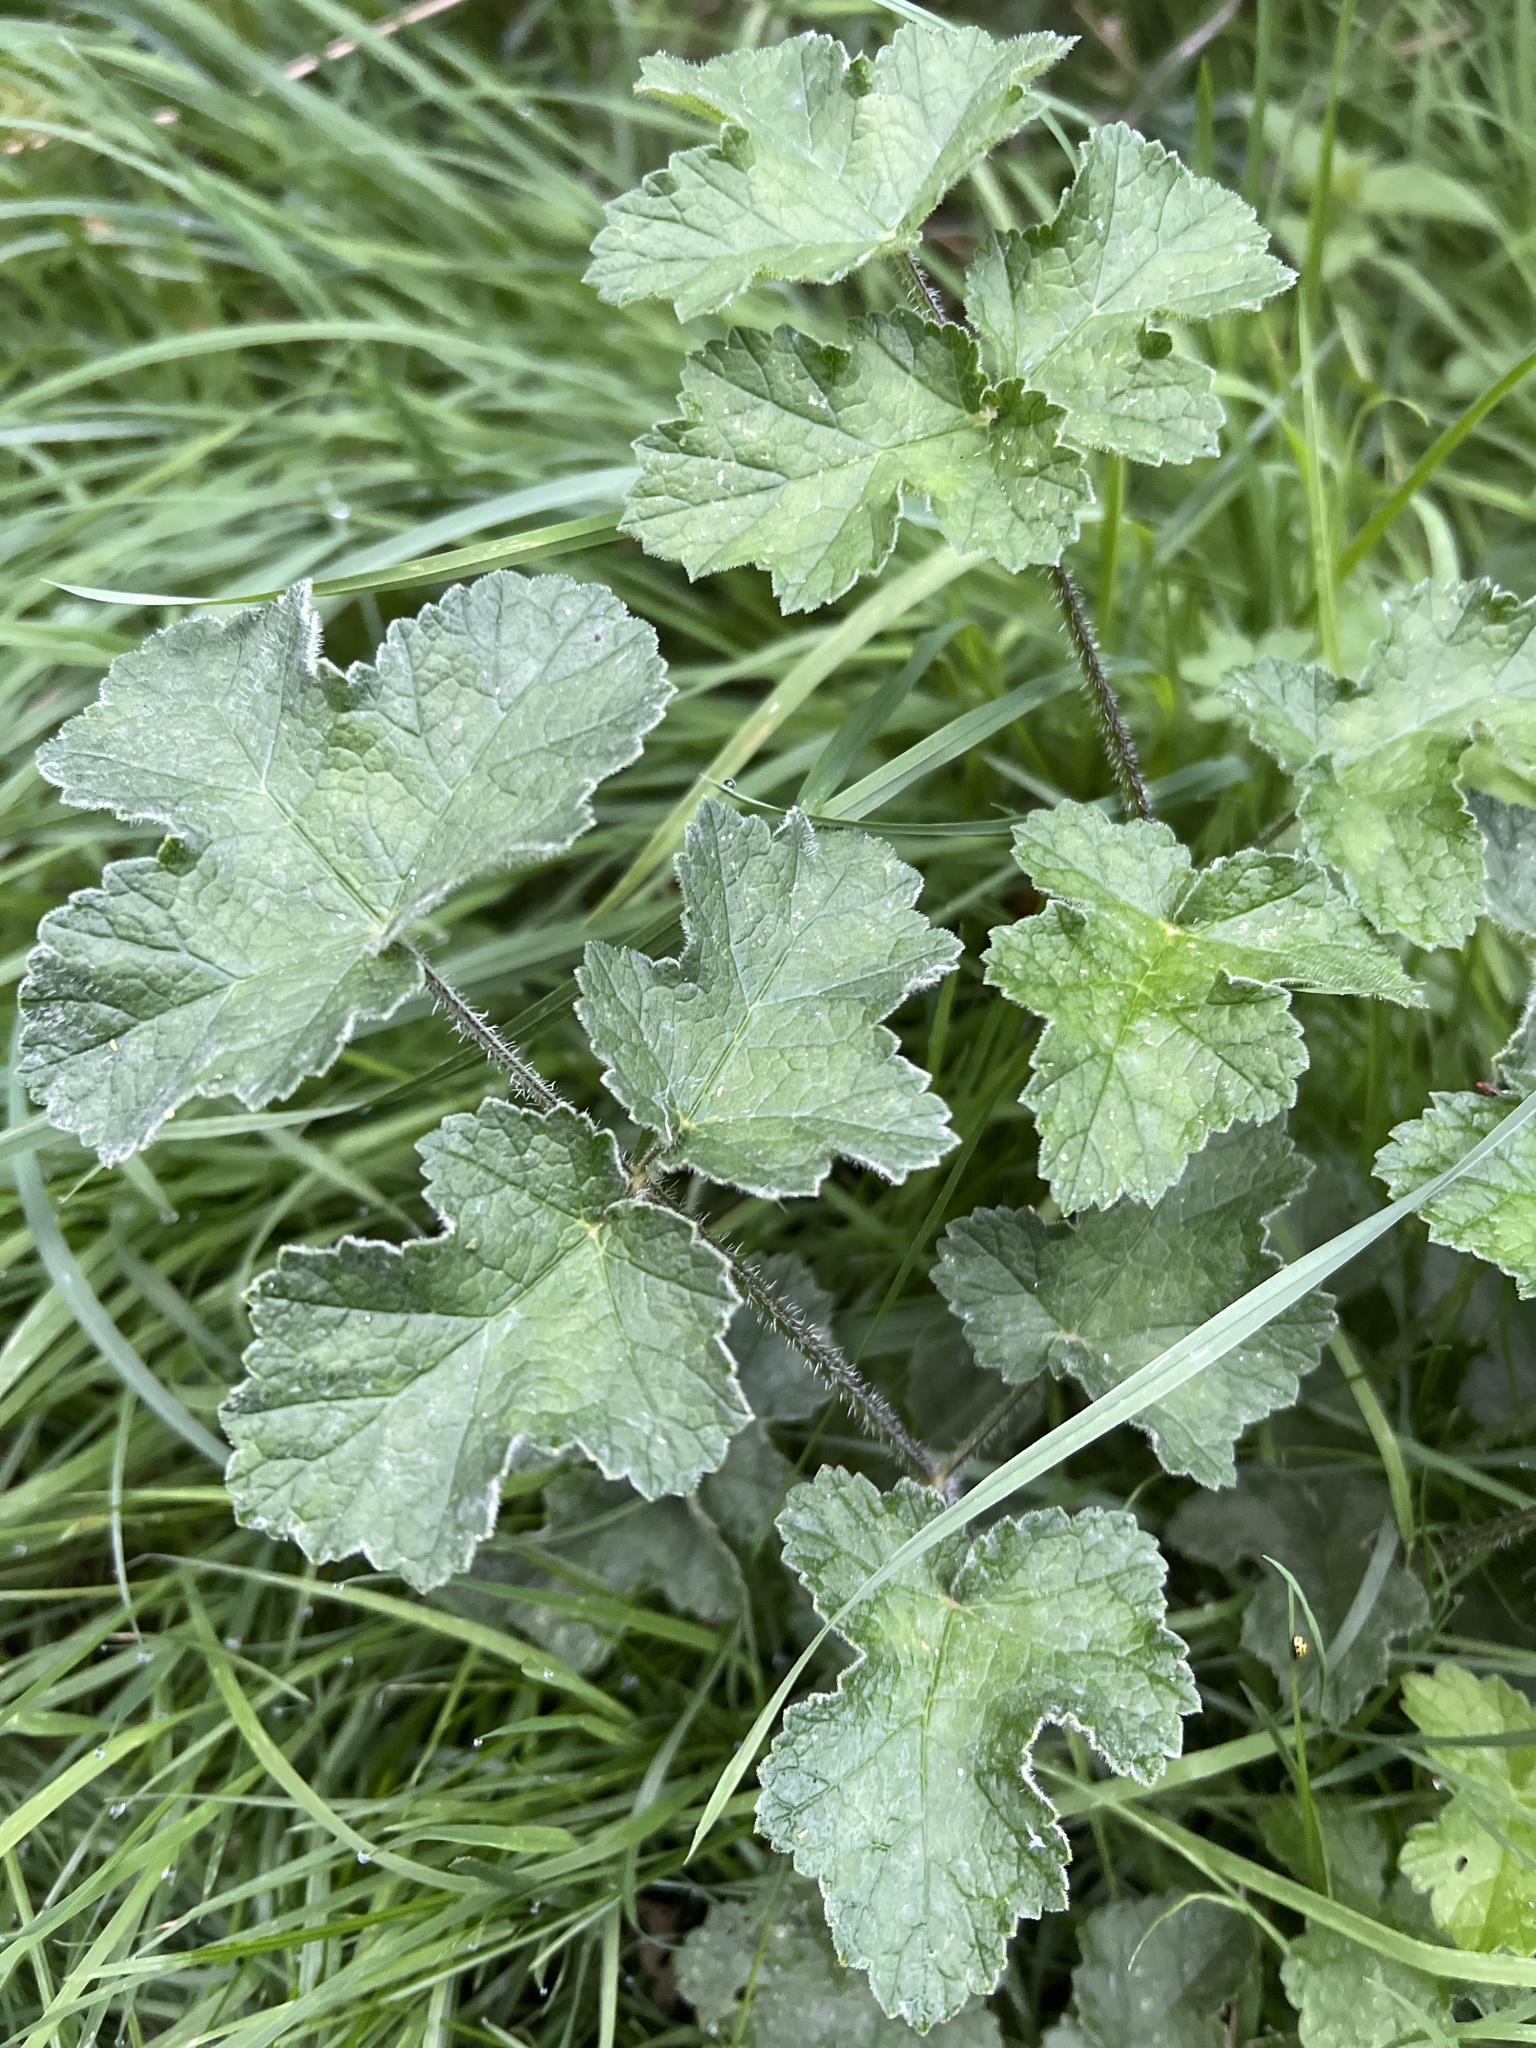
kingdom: Fungi
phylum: Ascomycota
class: Leotiomycetes
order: Helotiales
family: Erysiphaceae
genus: Erysiphe
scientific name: Erysiphe heraclei
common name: Umbellifer mildew
